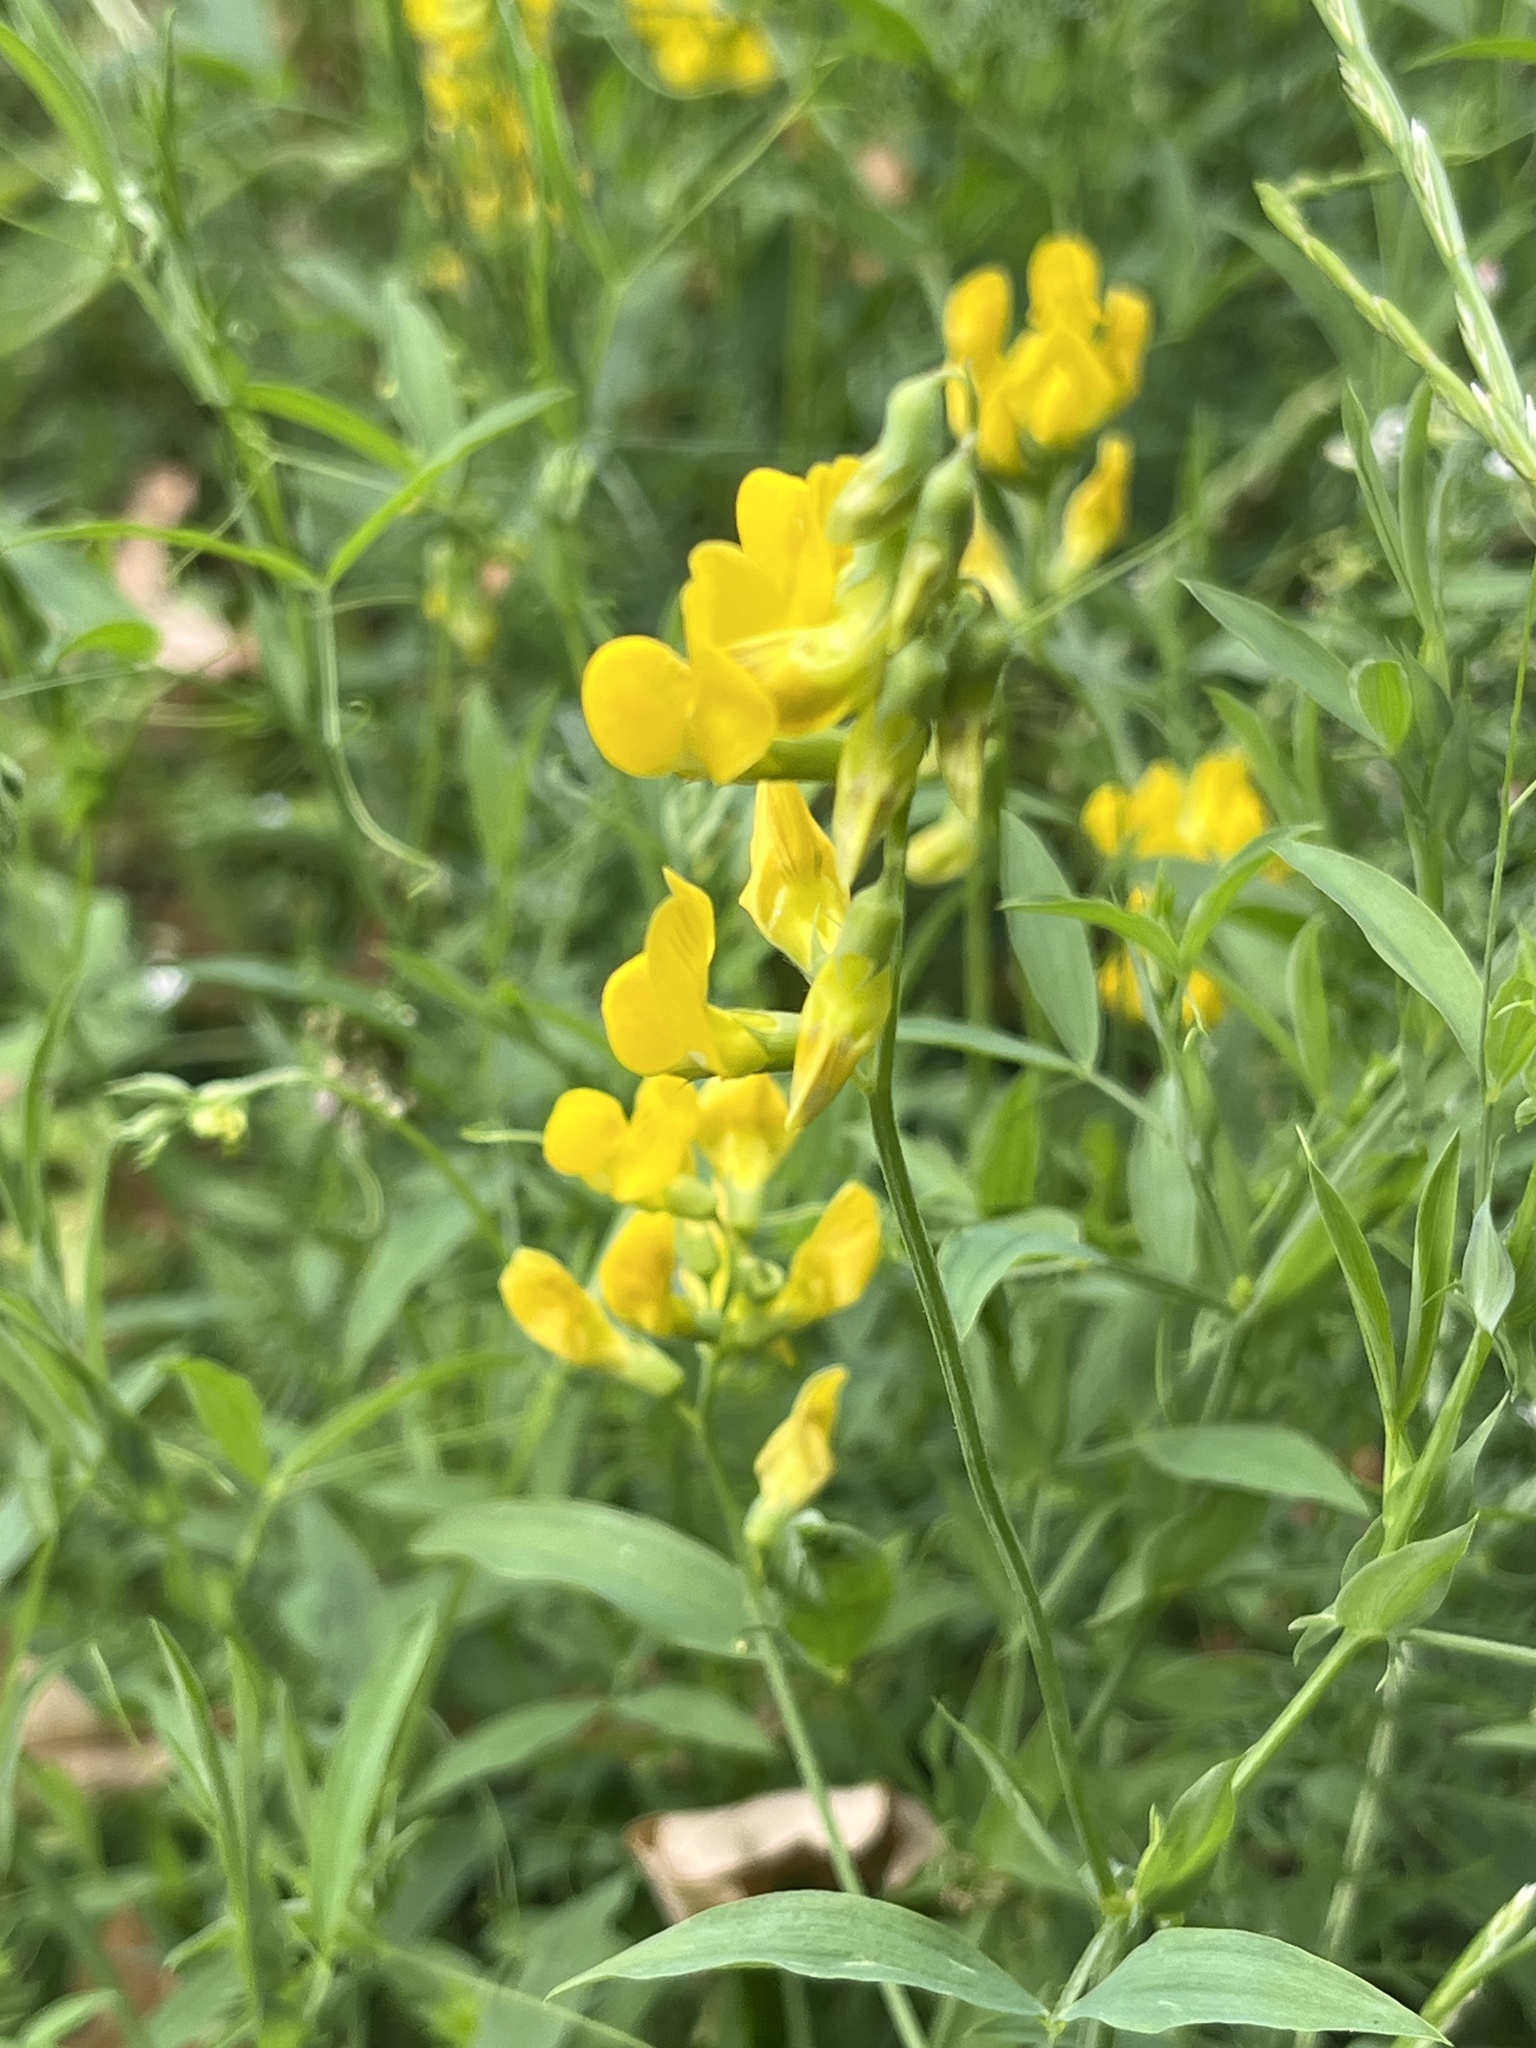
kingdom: Plantae
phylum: Tracheophyta
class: Magnoliopsida
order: Fabales
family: Fabaceae
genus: Lathyrus
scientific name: Lathyrus pratensis
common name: Meadow vetchling
